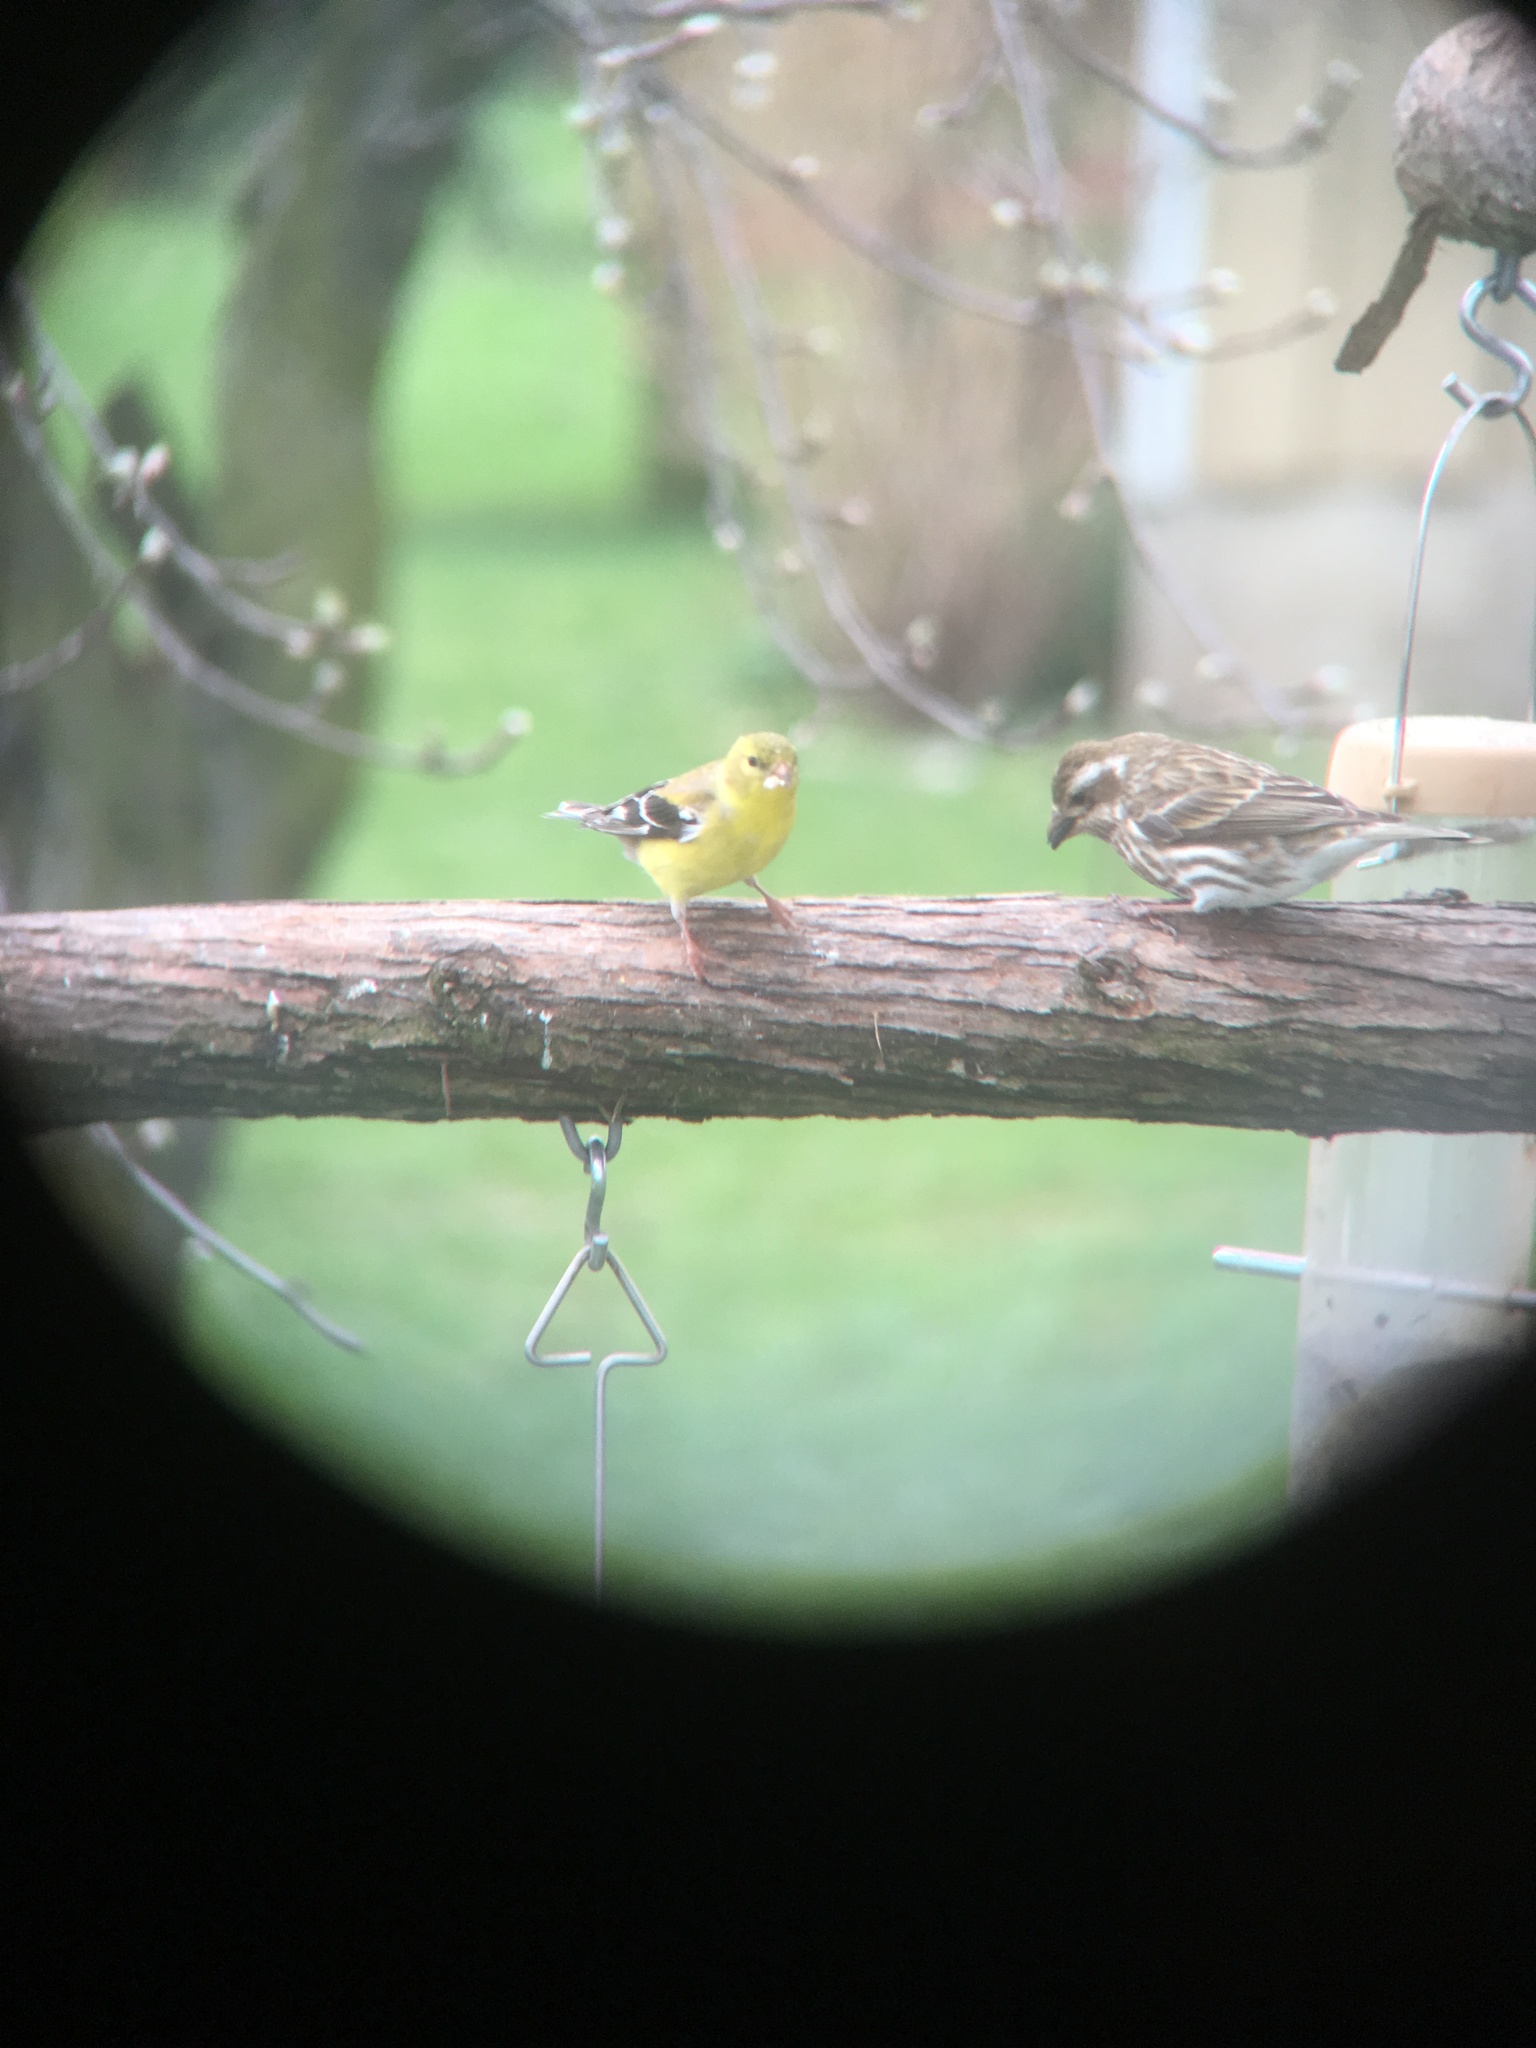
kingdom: Animalia
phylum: Chordata
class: Aves
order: Passeriformes
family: Cardinalidae
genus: Pheucticus
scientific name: Pheucticus ludovicianus
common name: Rose-breasted grosbeak
